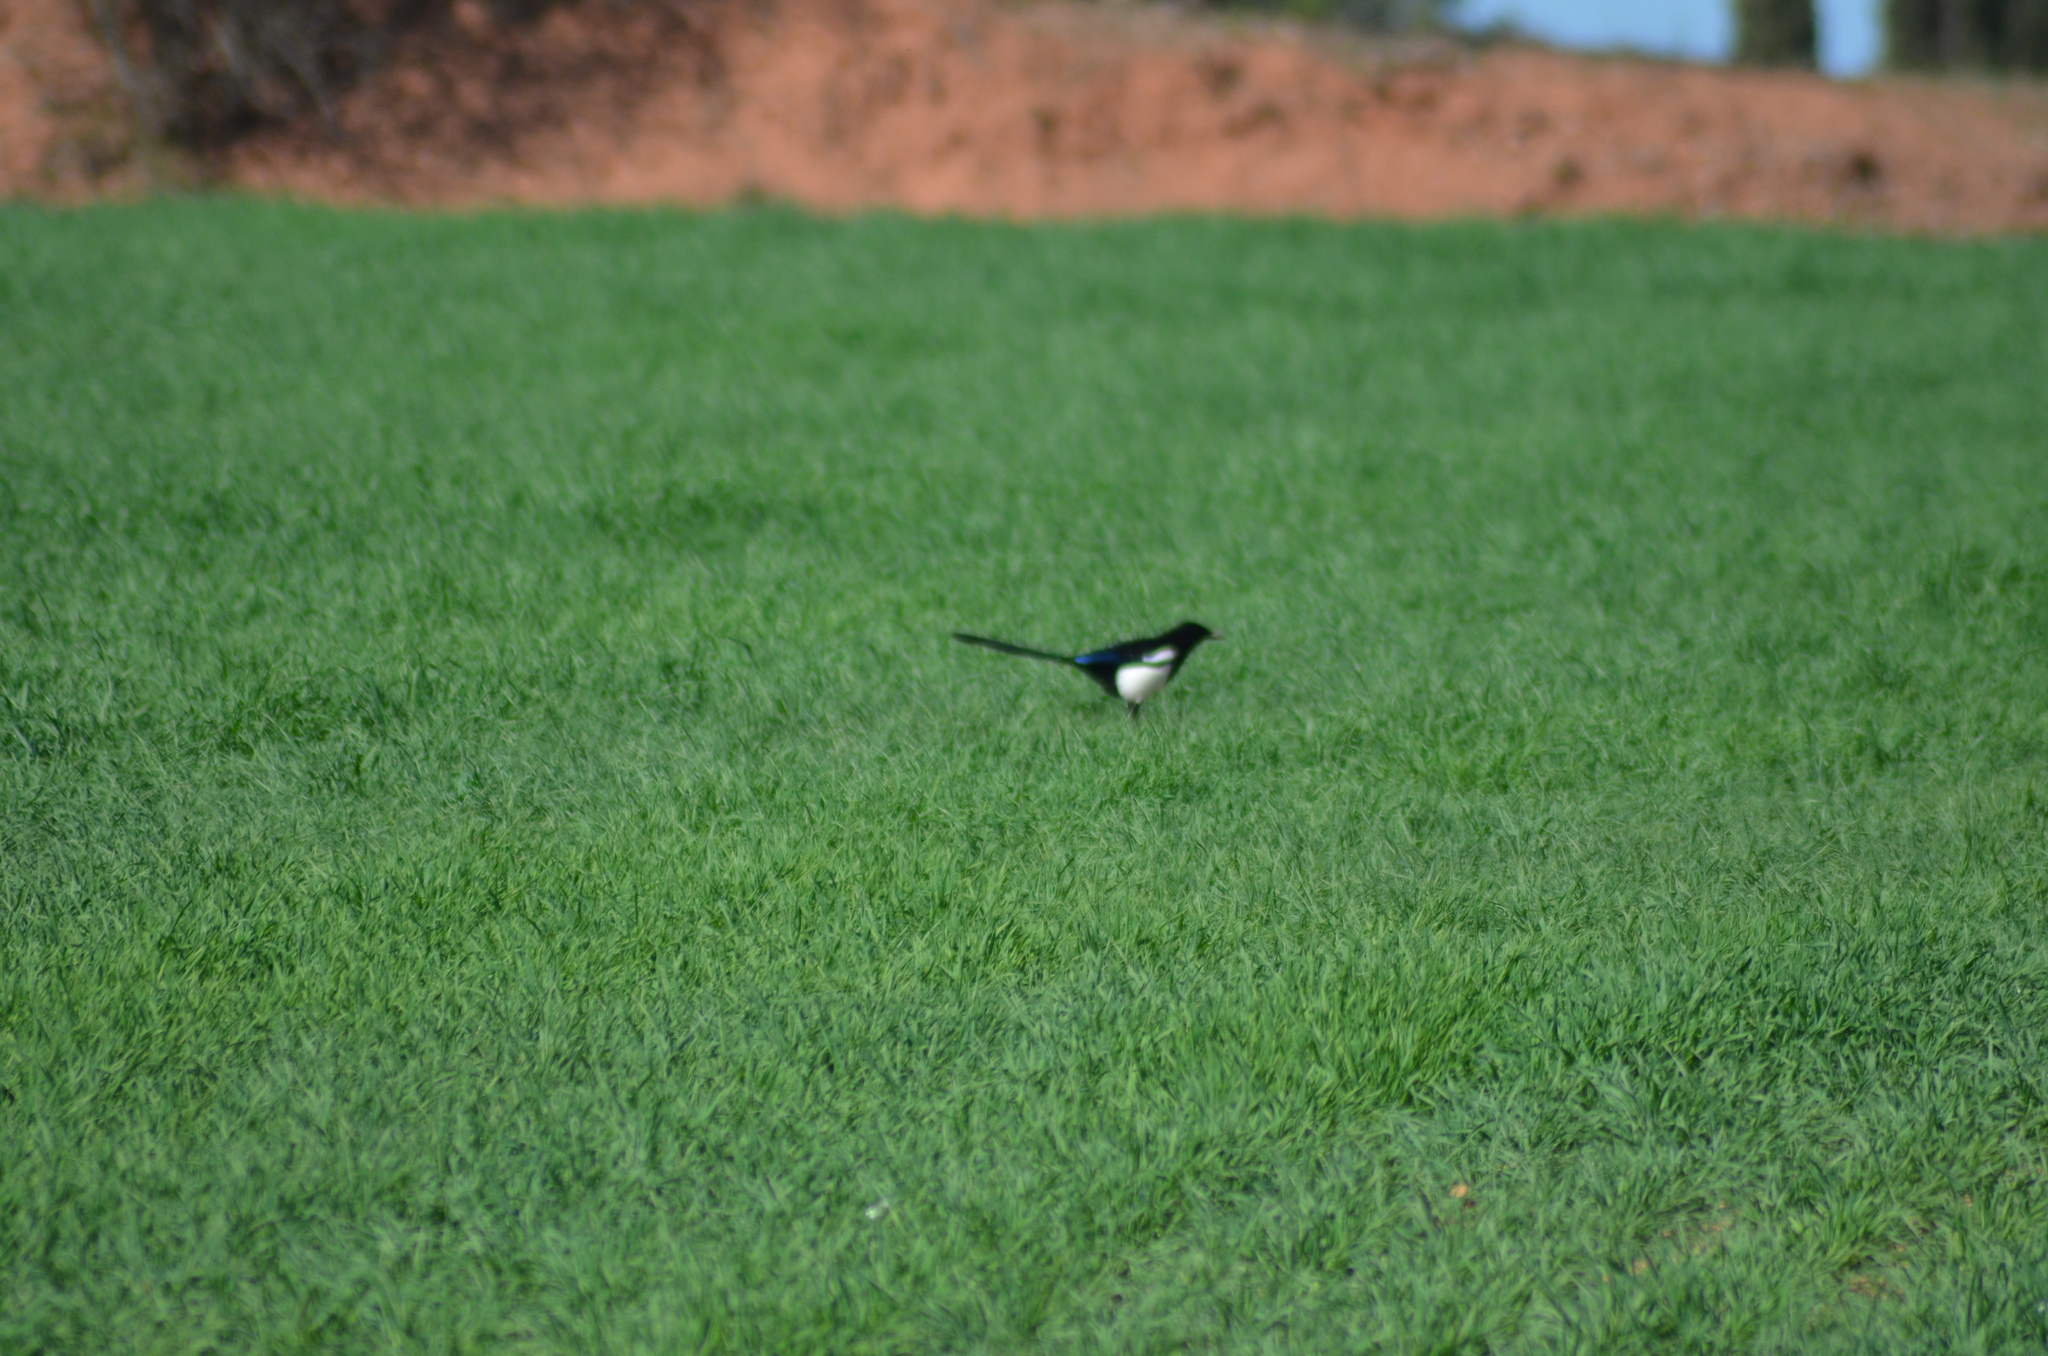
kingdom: Animalia
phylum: Chordata
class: Aves
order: Passeriformes
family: Corvidae
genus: Pica
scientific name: Pica pica
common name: Eurasian magpie
